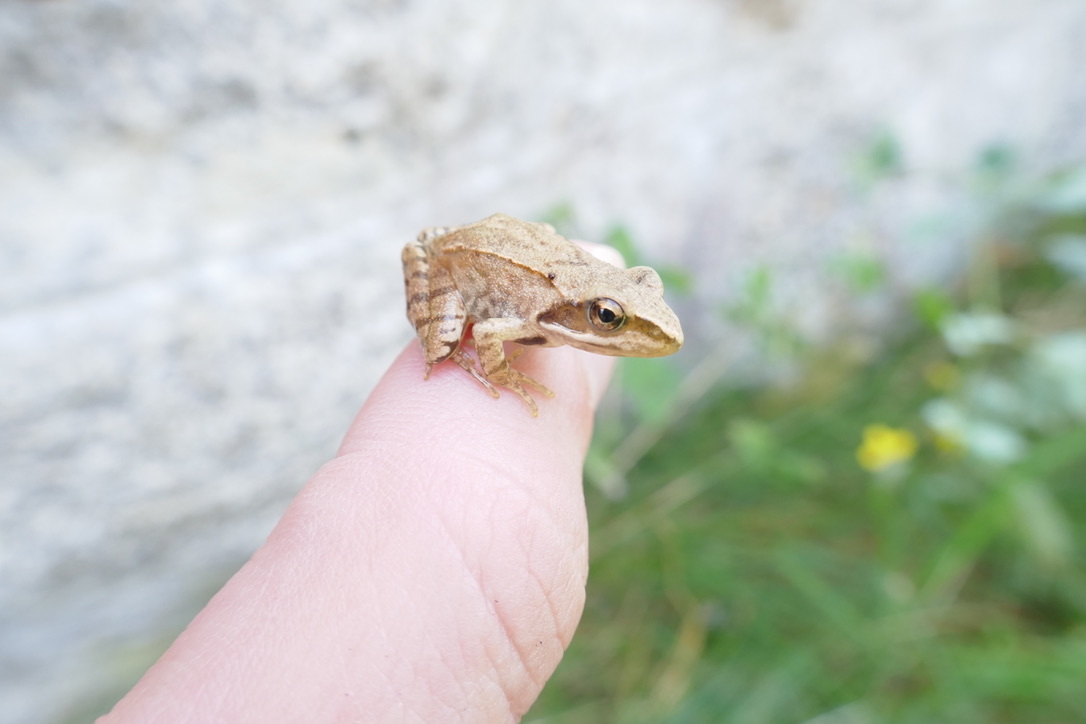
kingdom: Animalia
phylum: Chordata
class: Amphibia
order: Anura
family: Ranidae
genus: Rana
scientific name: Rana dalmatina
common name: Agile frog
